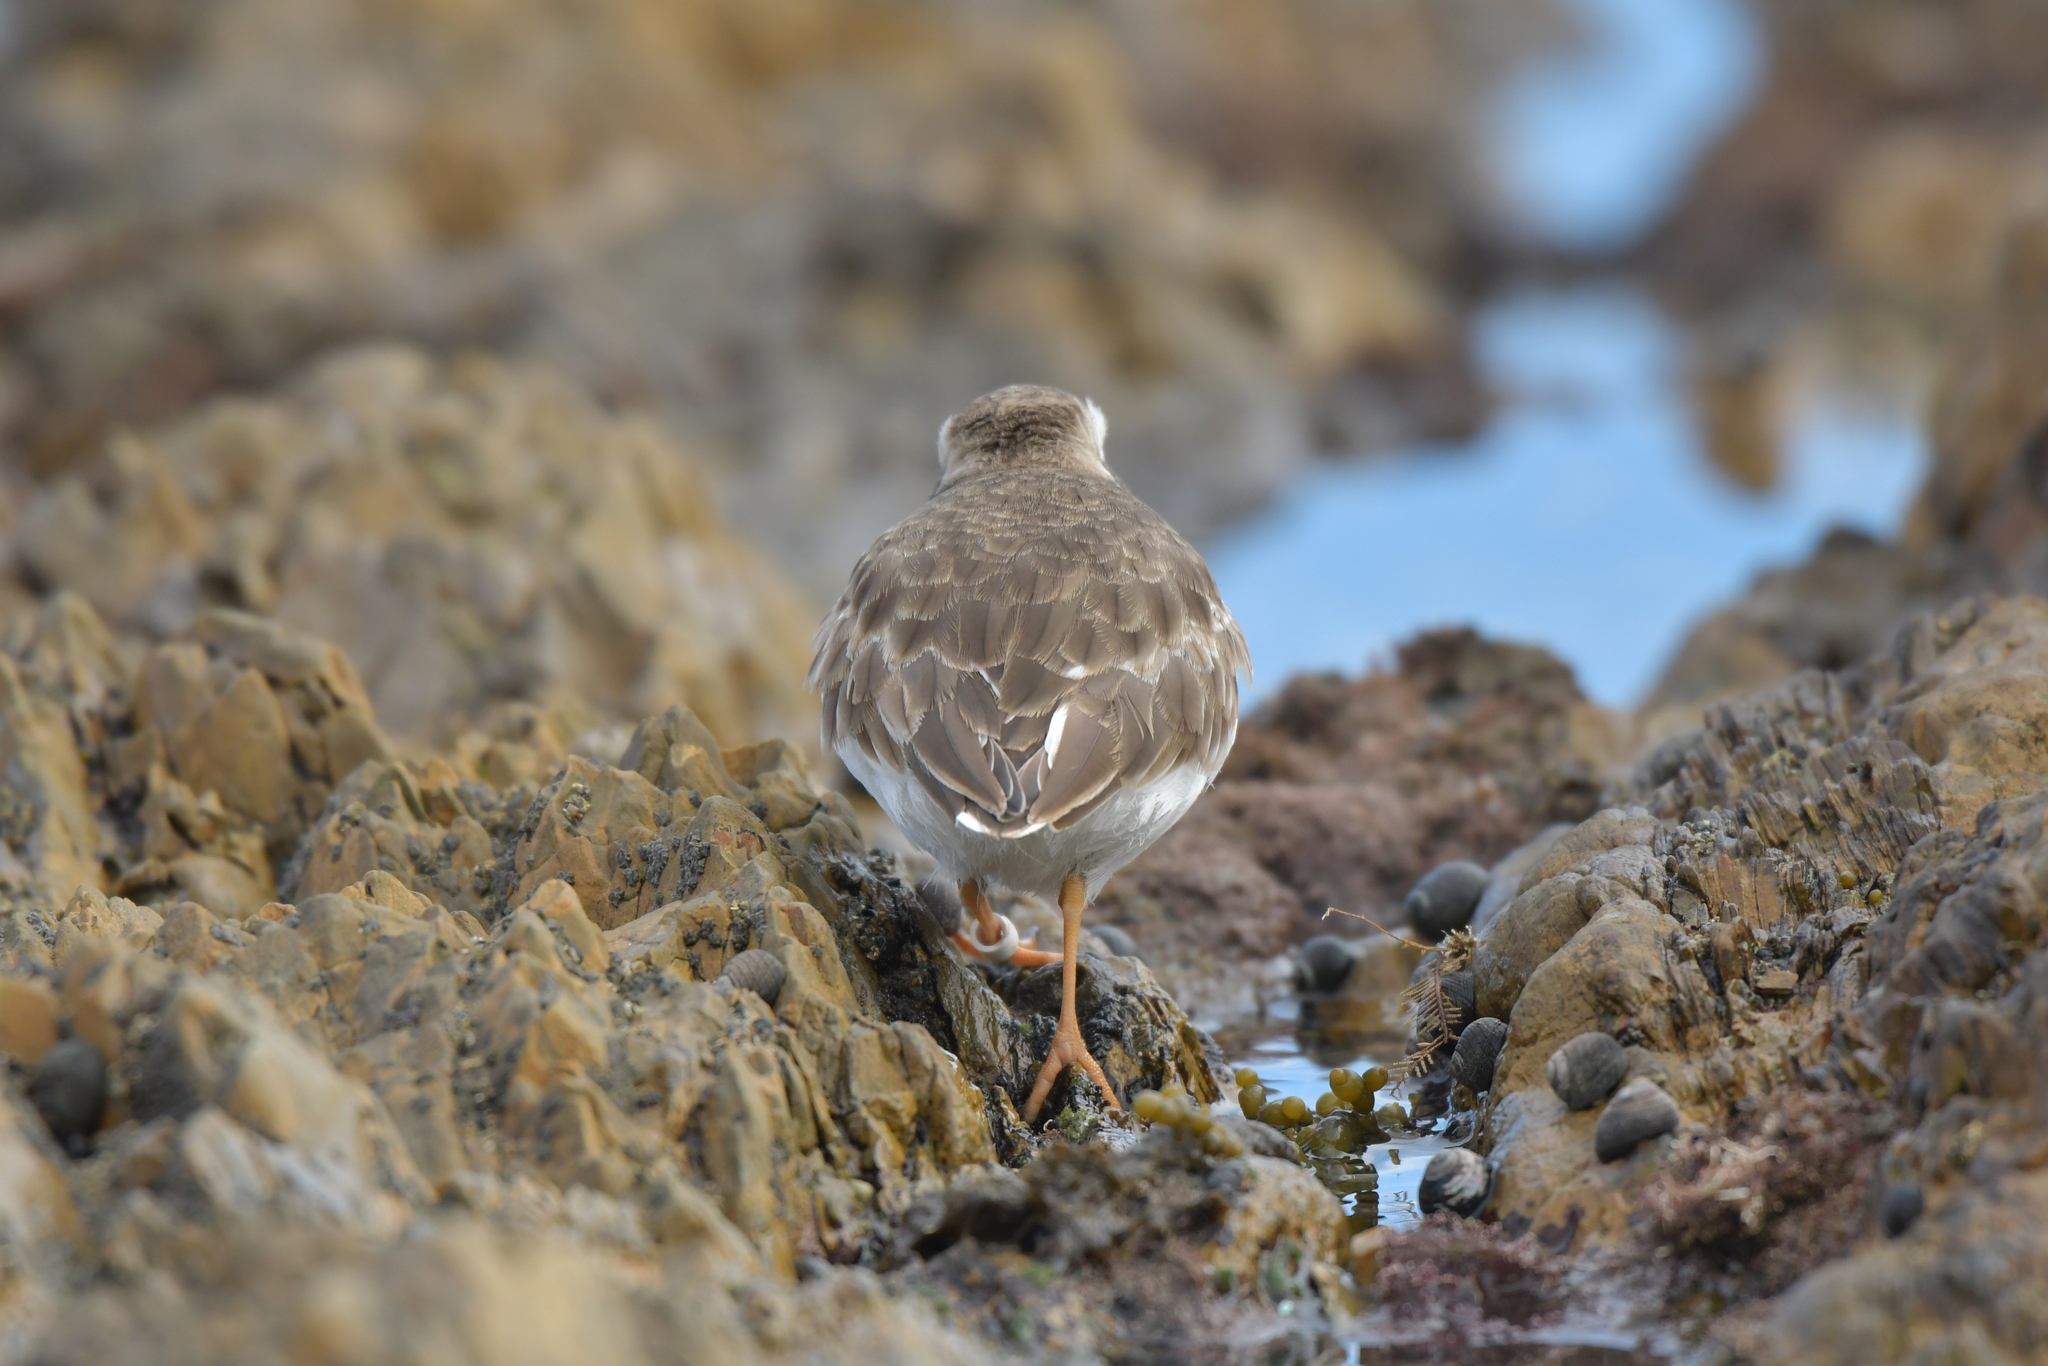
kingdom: Animalia
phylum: Chordata
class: Aves
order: Charadriiformes
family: Charadriidae
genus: Thinornis
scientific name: Thinornis novaeseelandiae
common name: Shore dotterel
